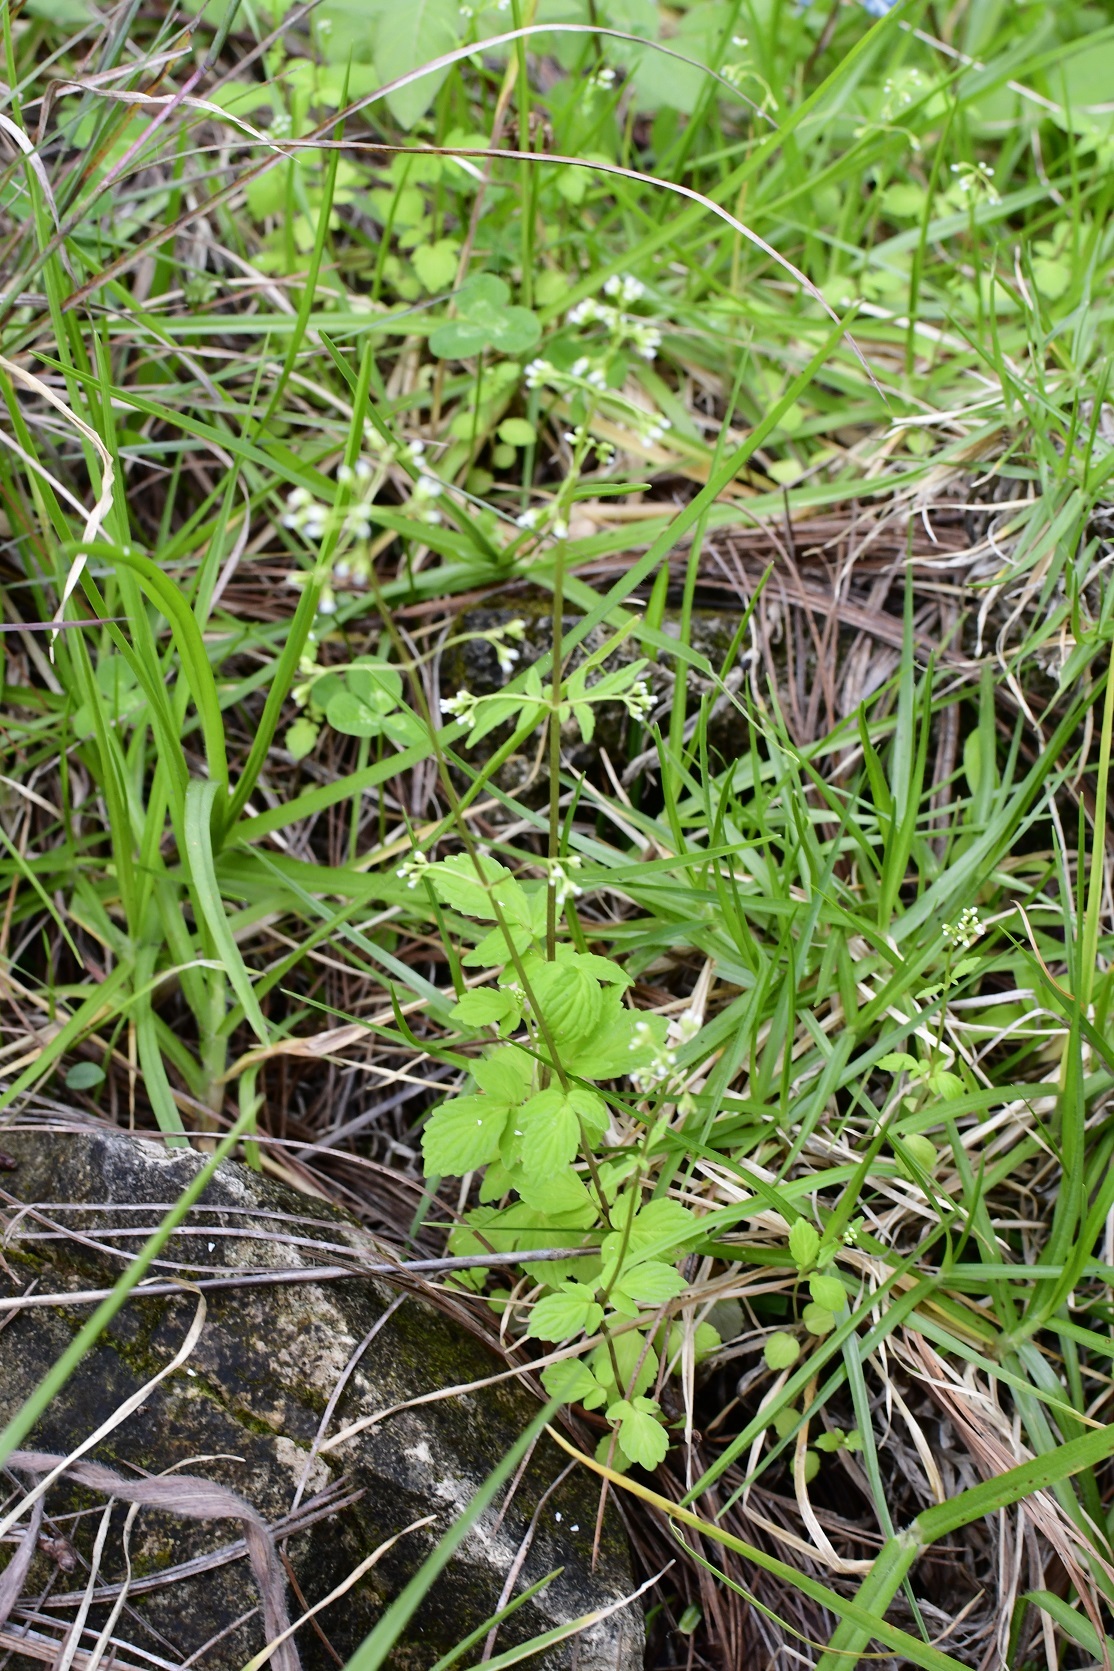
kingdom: Plantae
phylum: Tracheophyta
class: Magnoliopsida
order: Dipsacales
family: Caprifoliaceae
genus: Valeriana
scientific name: Valeriana chiapensis
